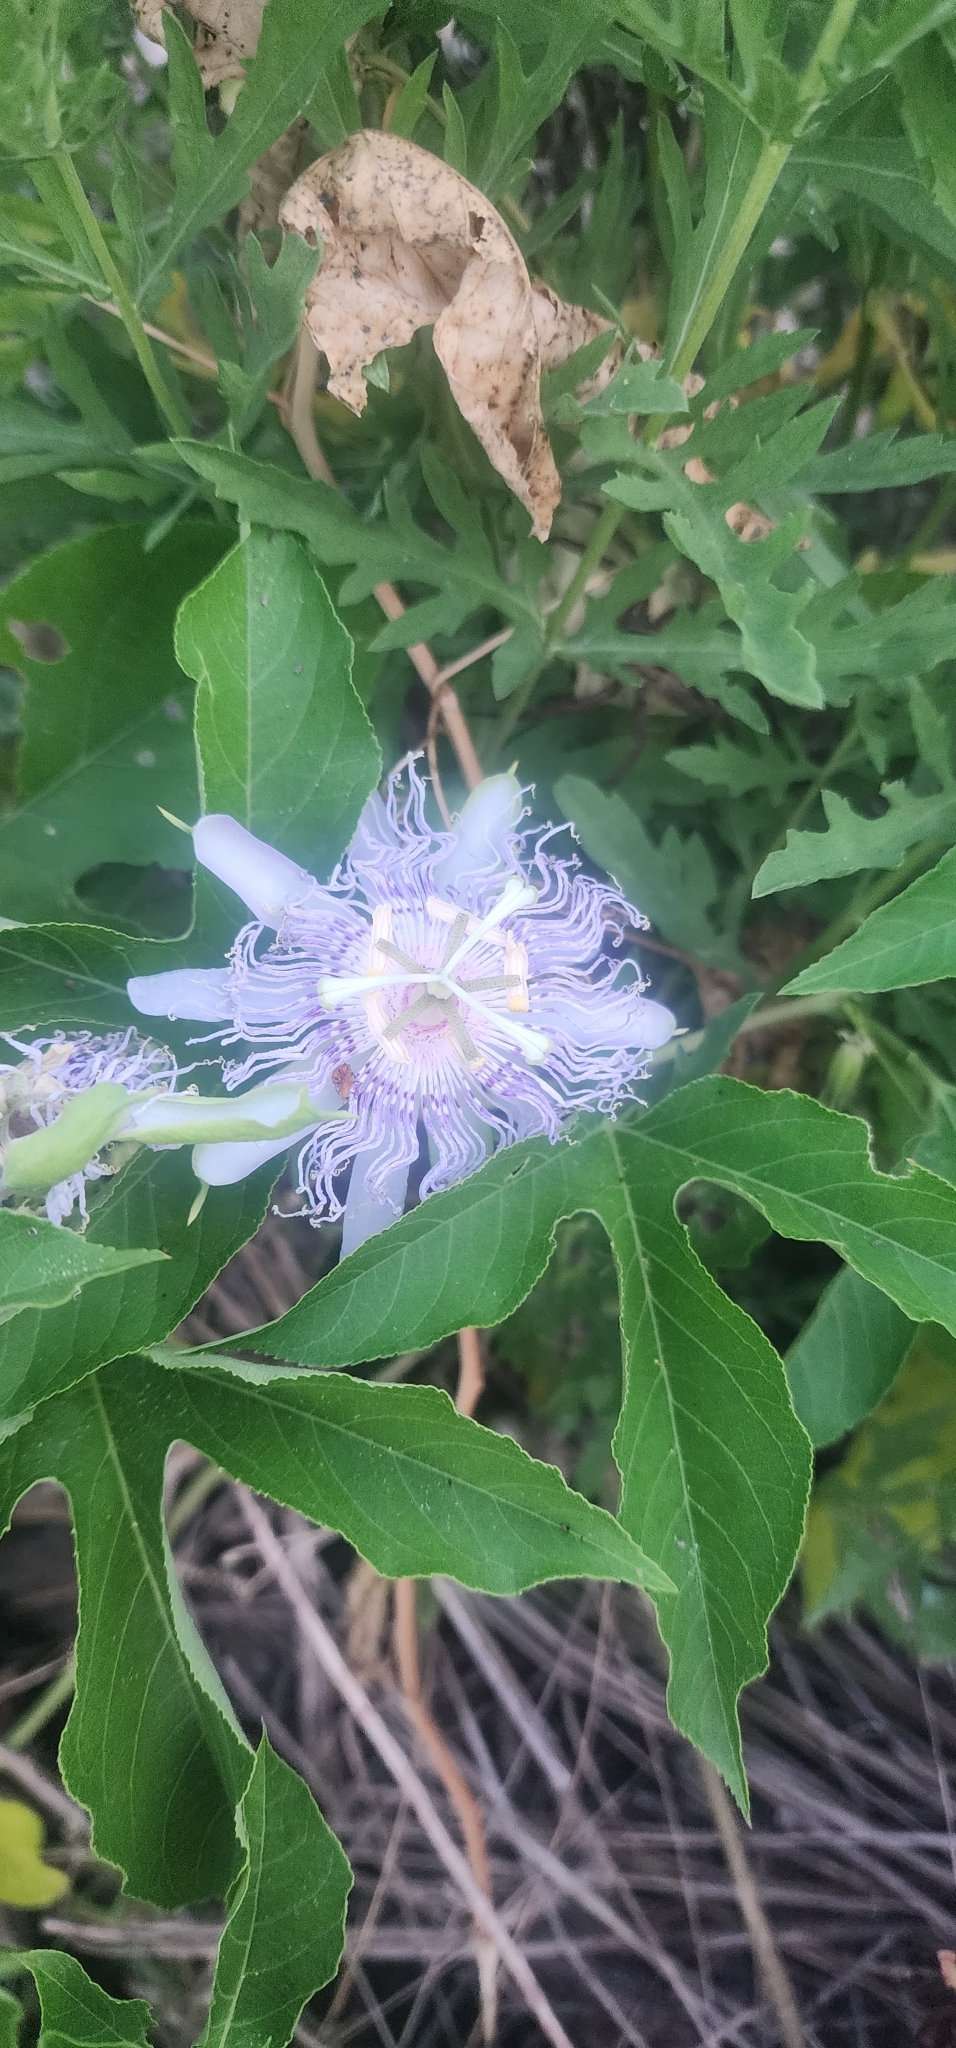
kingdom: Plantae
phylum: Tracheophyta
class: Magnoliopsida
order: Malpighiales
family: Passifloraceae
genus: Passiflora
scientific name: Passiflora incarnata
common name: Apricot-vine
